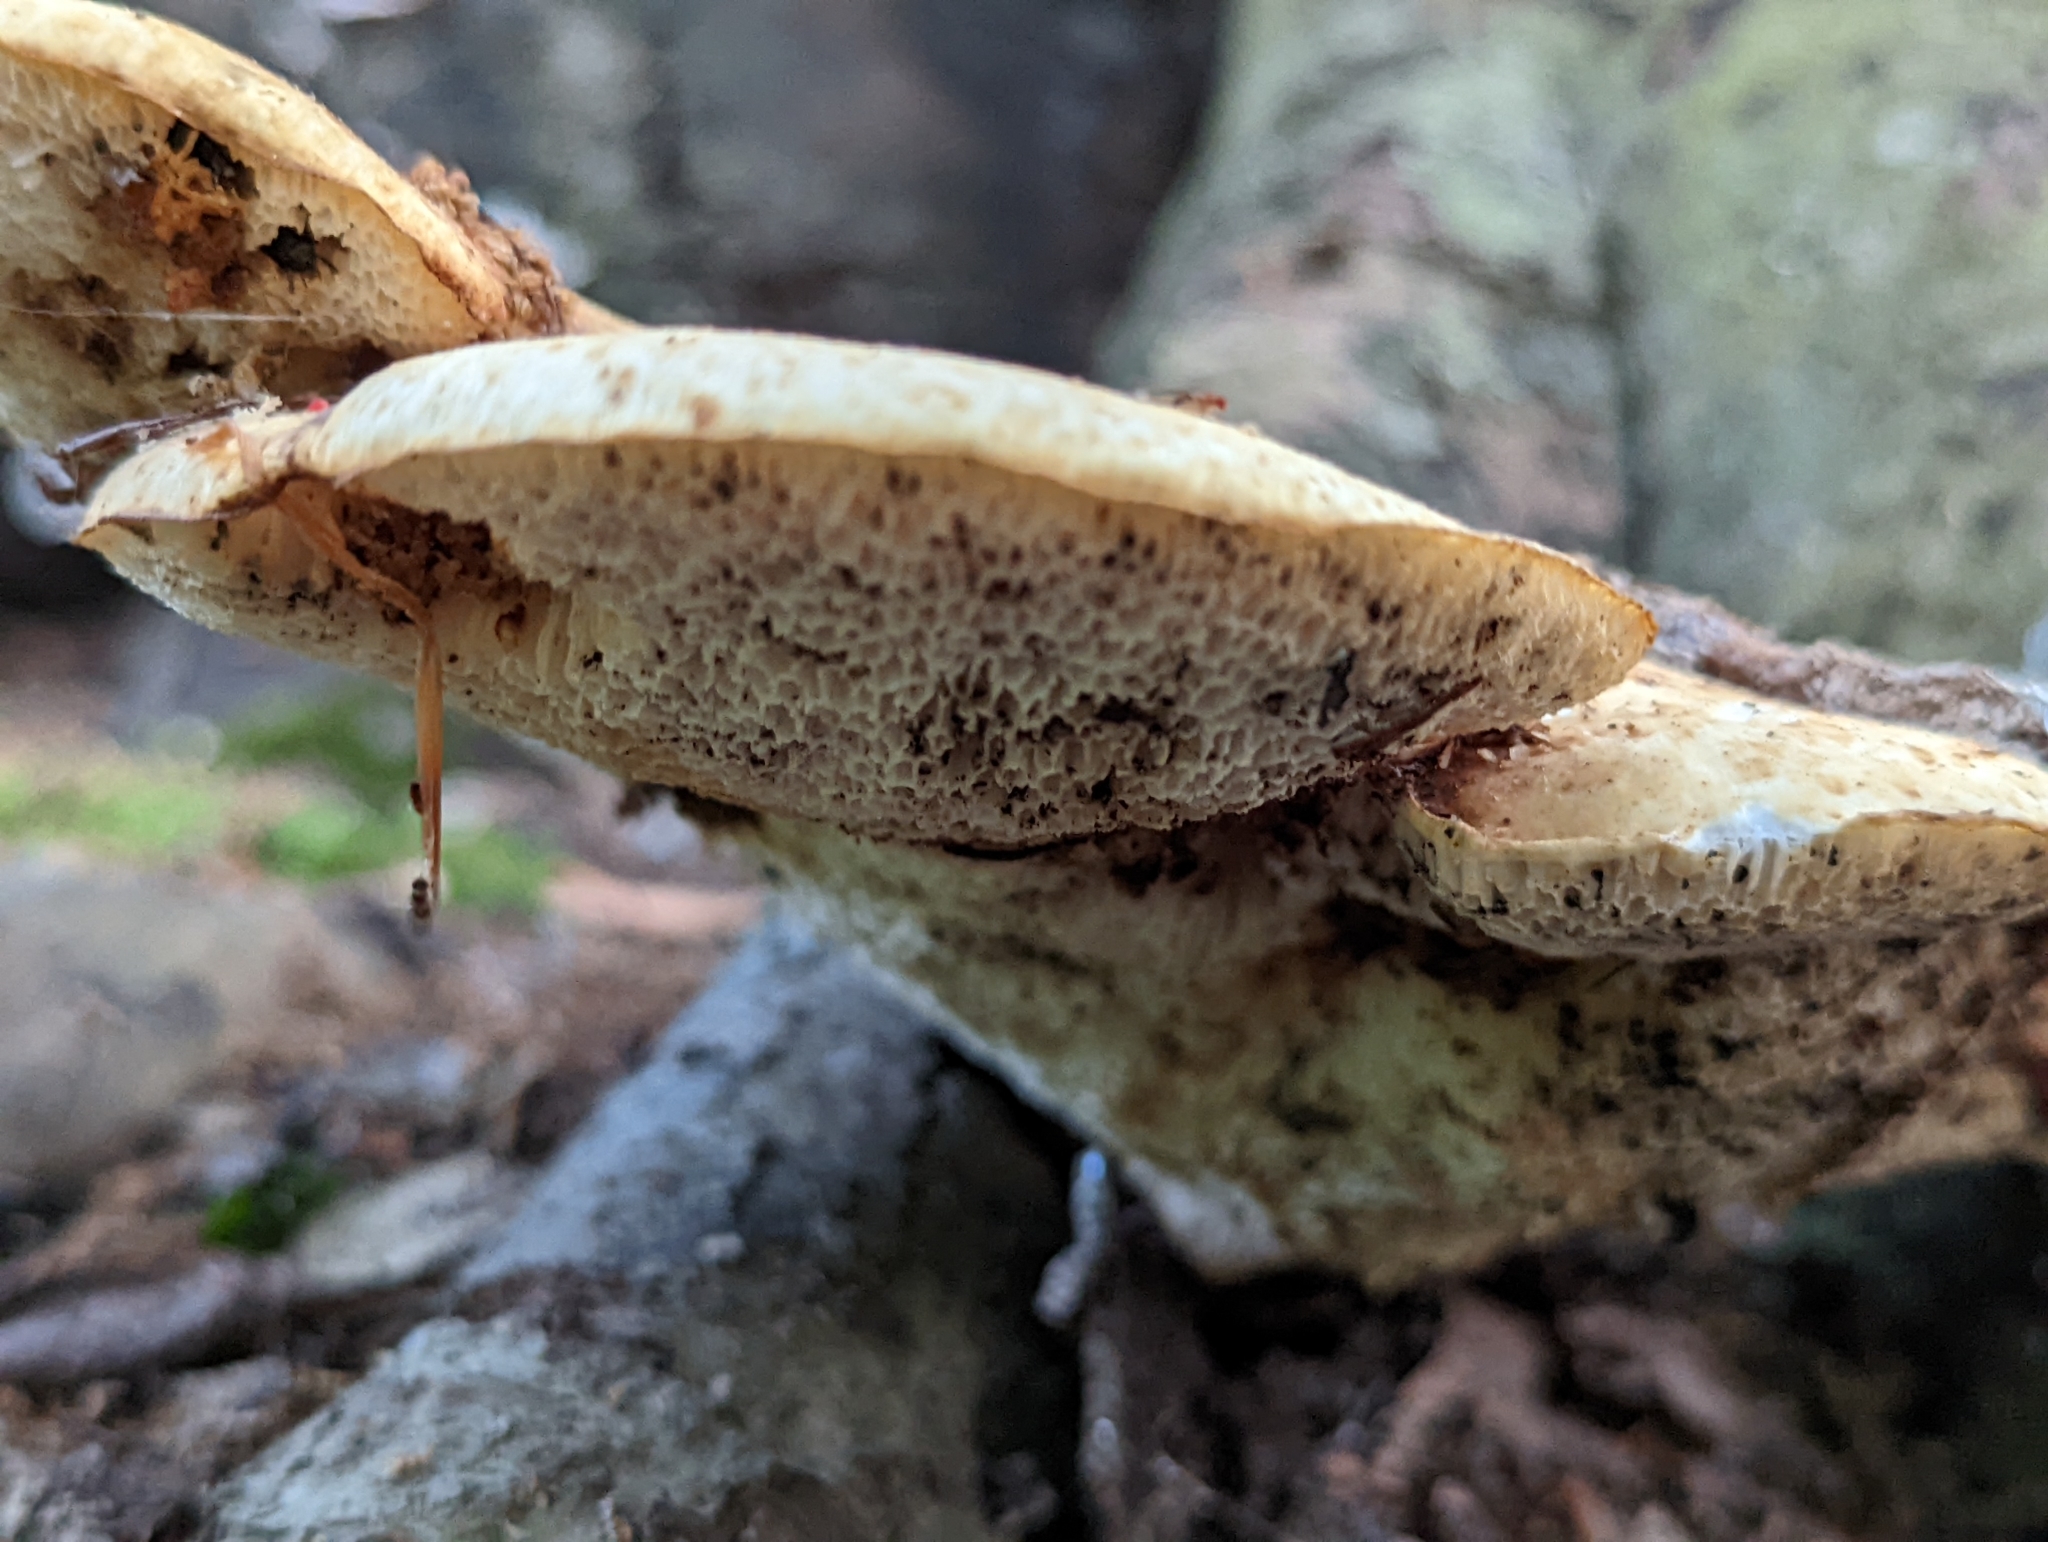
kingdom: Fungi
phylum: Basidiomycota
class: Agaricomycetes
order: Polyporales
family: Polyporaceae
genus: Cerioporus
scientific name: Cerioporus squamosus
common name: Dryad's saddle
